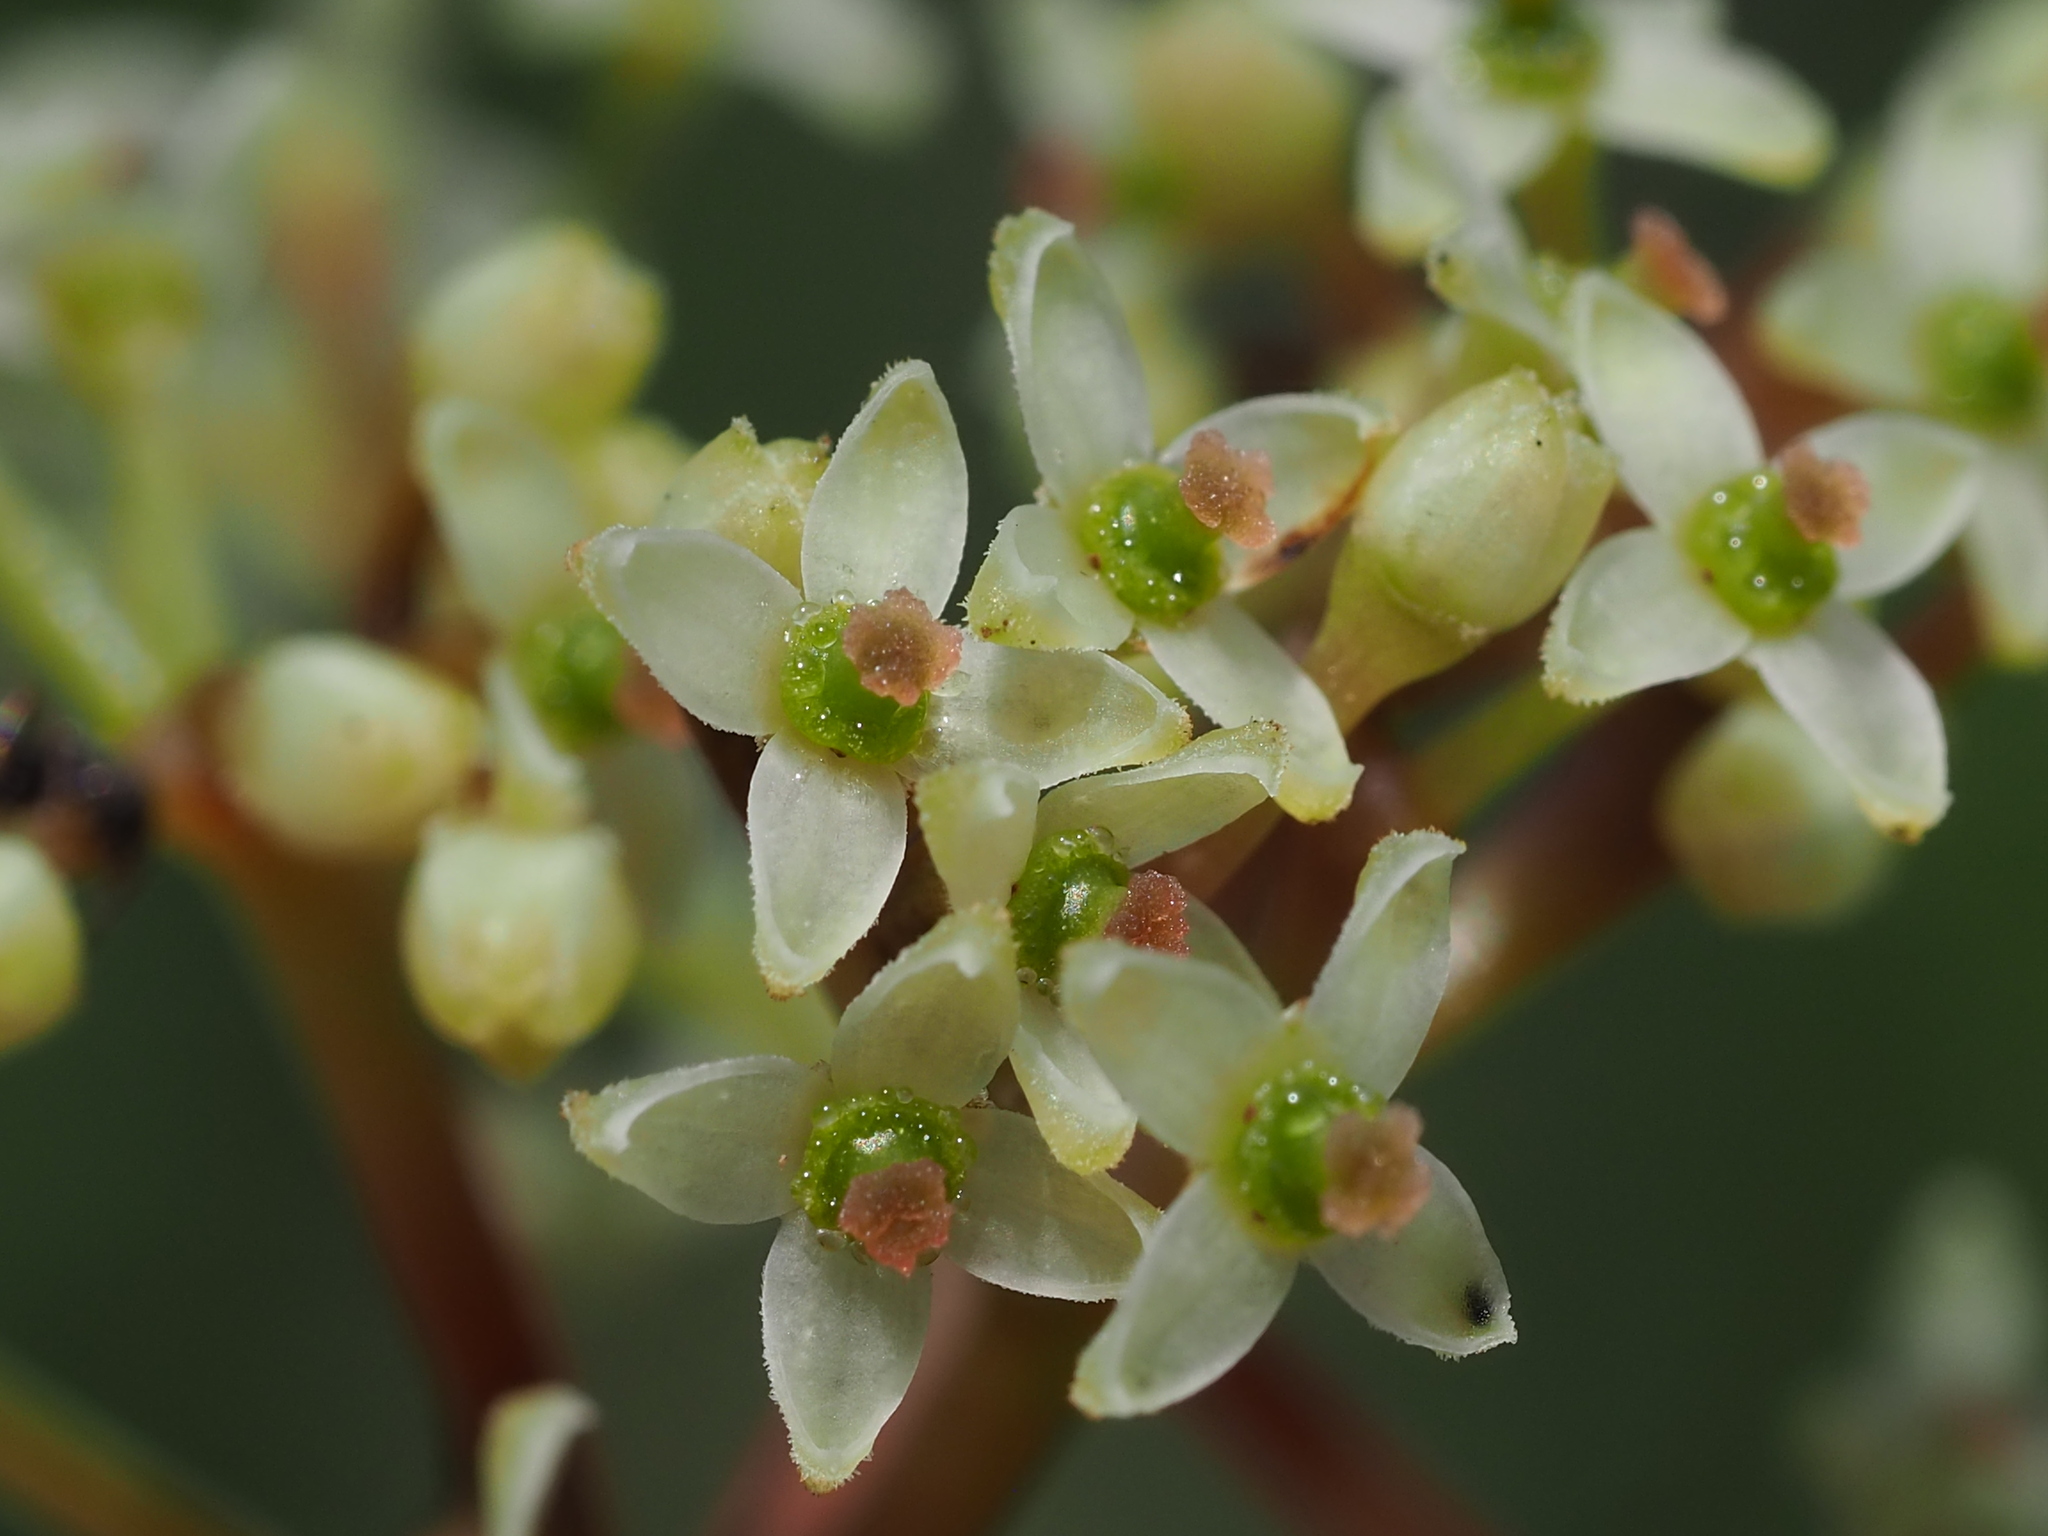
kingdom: Plantae
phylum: Tracheophyta
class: Magnoliopsida
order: Vitales
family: Vitaceae
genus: Tetrastigma
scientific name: Tetrastigma formosanum
